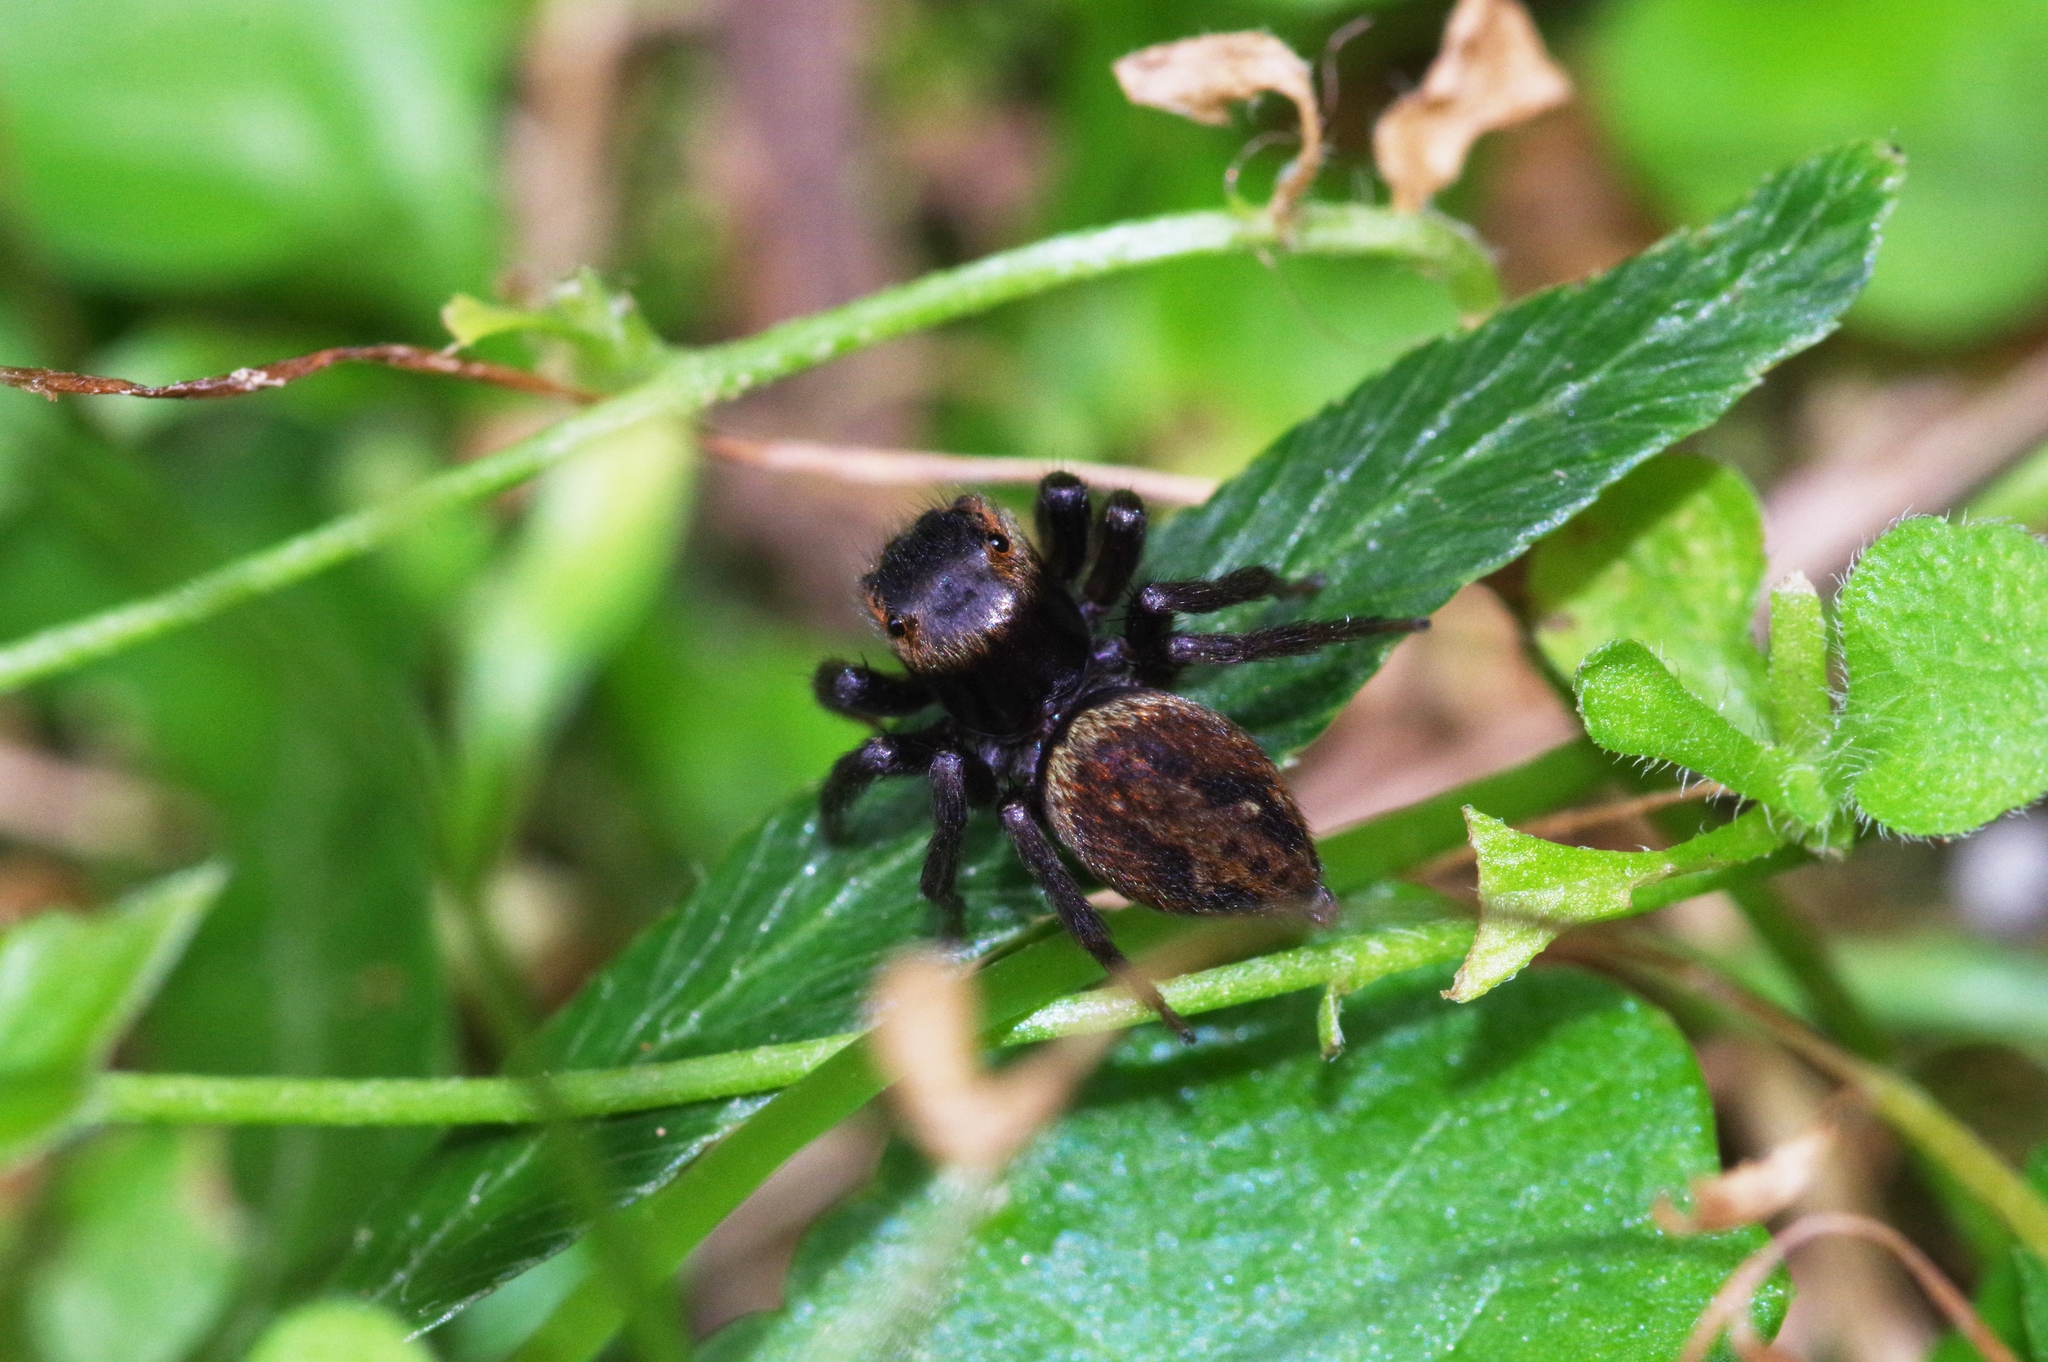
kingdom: Animalia
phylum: Arthropoda
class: Arachnida
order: Araneae
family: Salticidae
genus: Hasarius
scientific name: Hasarius adansoni
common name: Jumping spider
